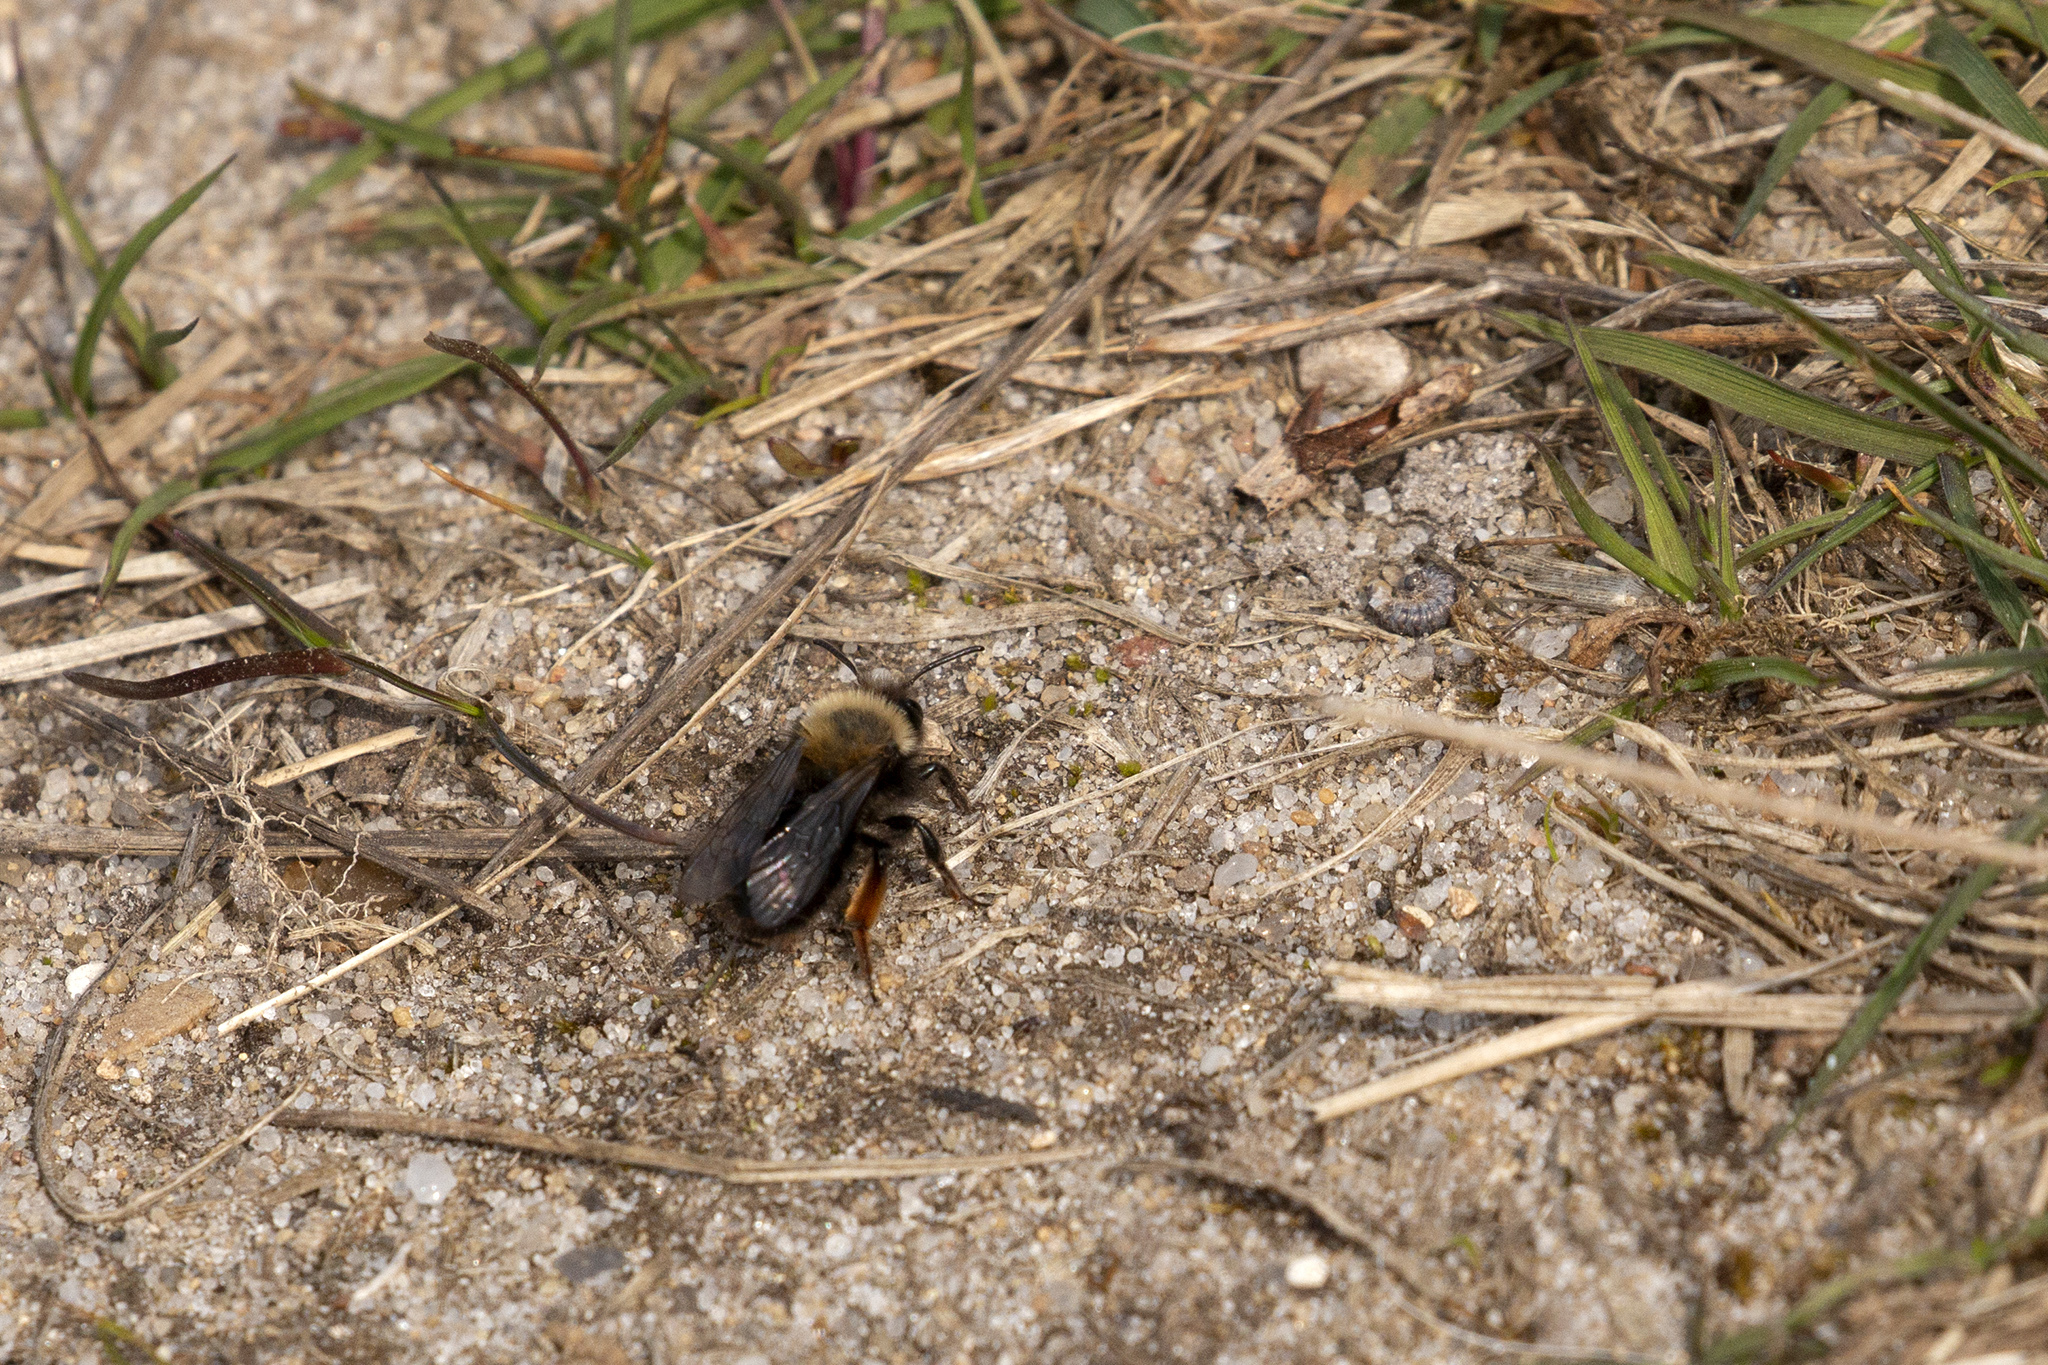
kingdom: Animalia
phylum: Arthropoda
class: Insecta
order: Hymenoptera
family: Andrenidae
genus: Andrena
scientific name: Andrena clarkella
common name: Clarke's mining bee
